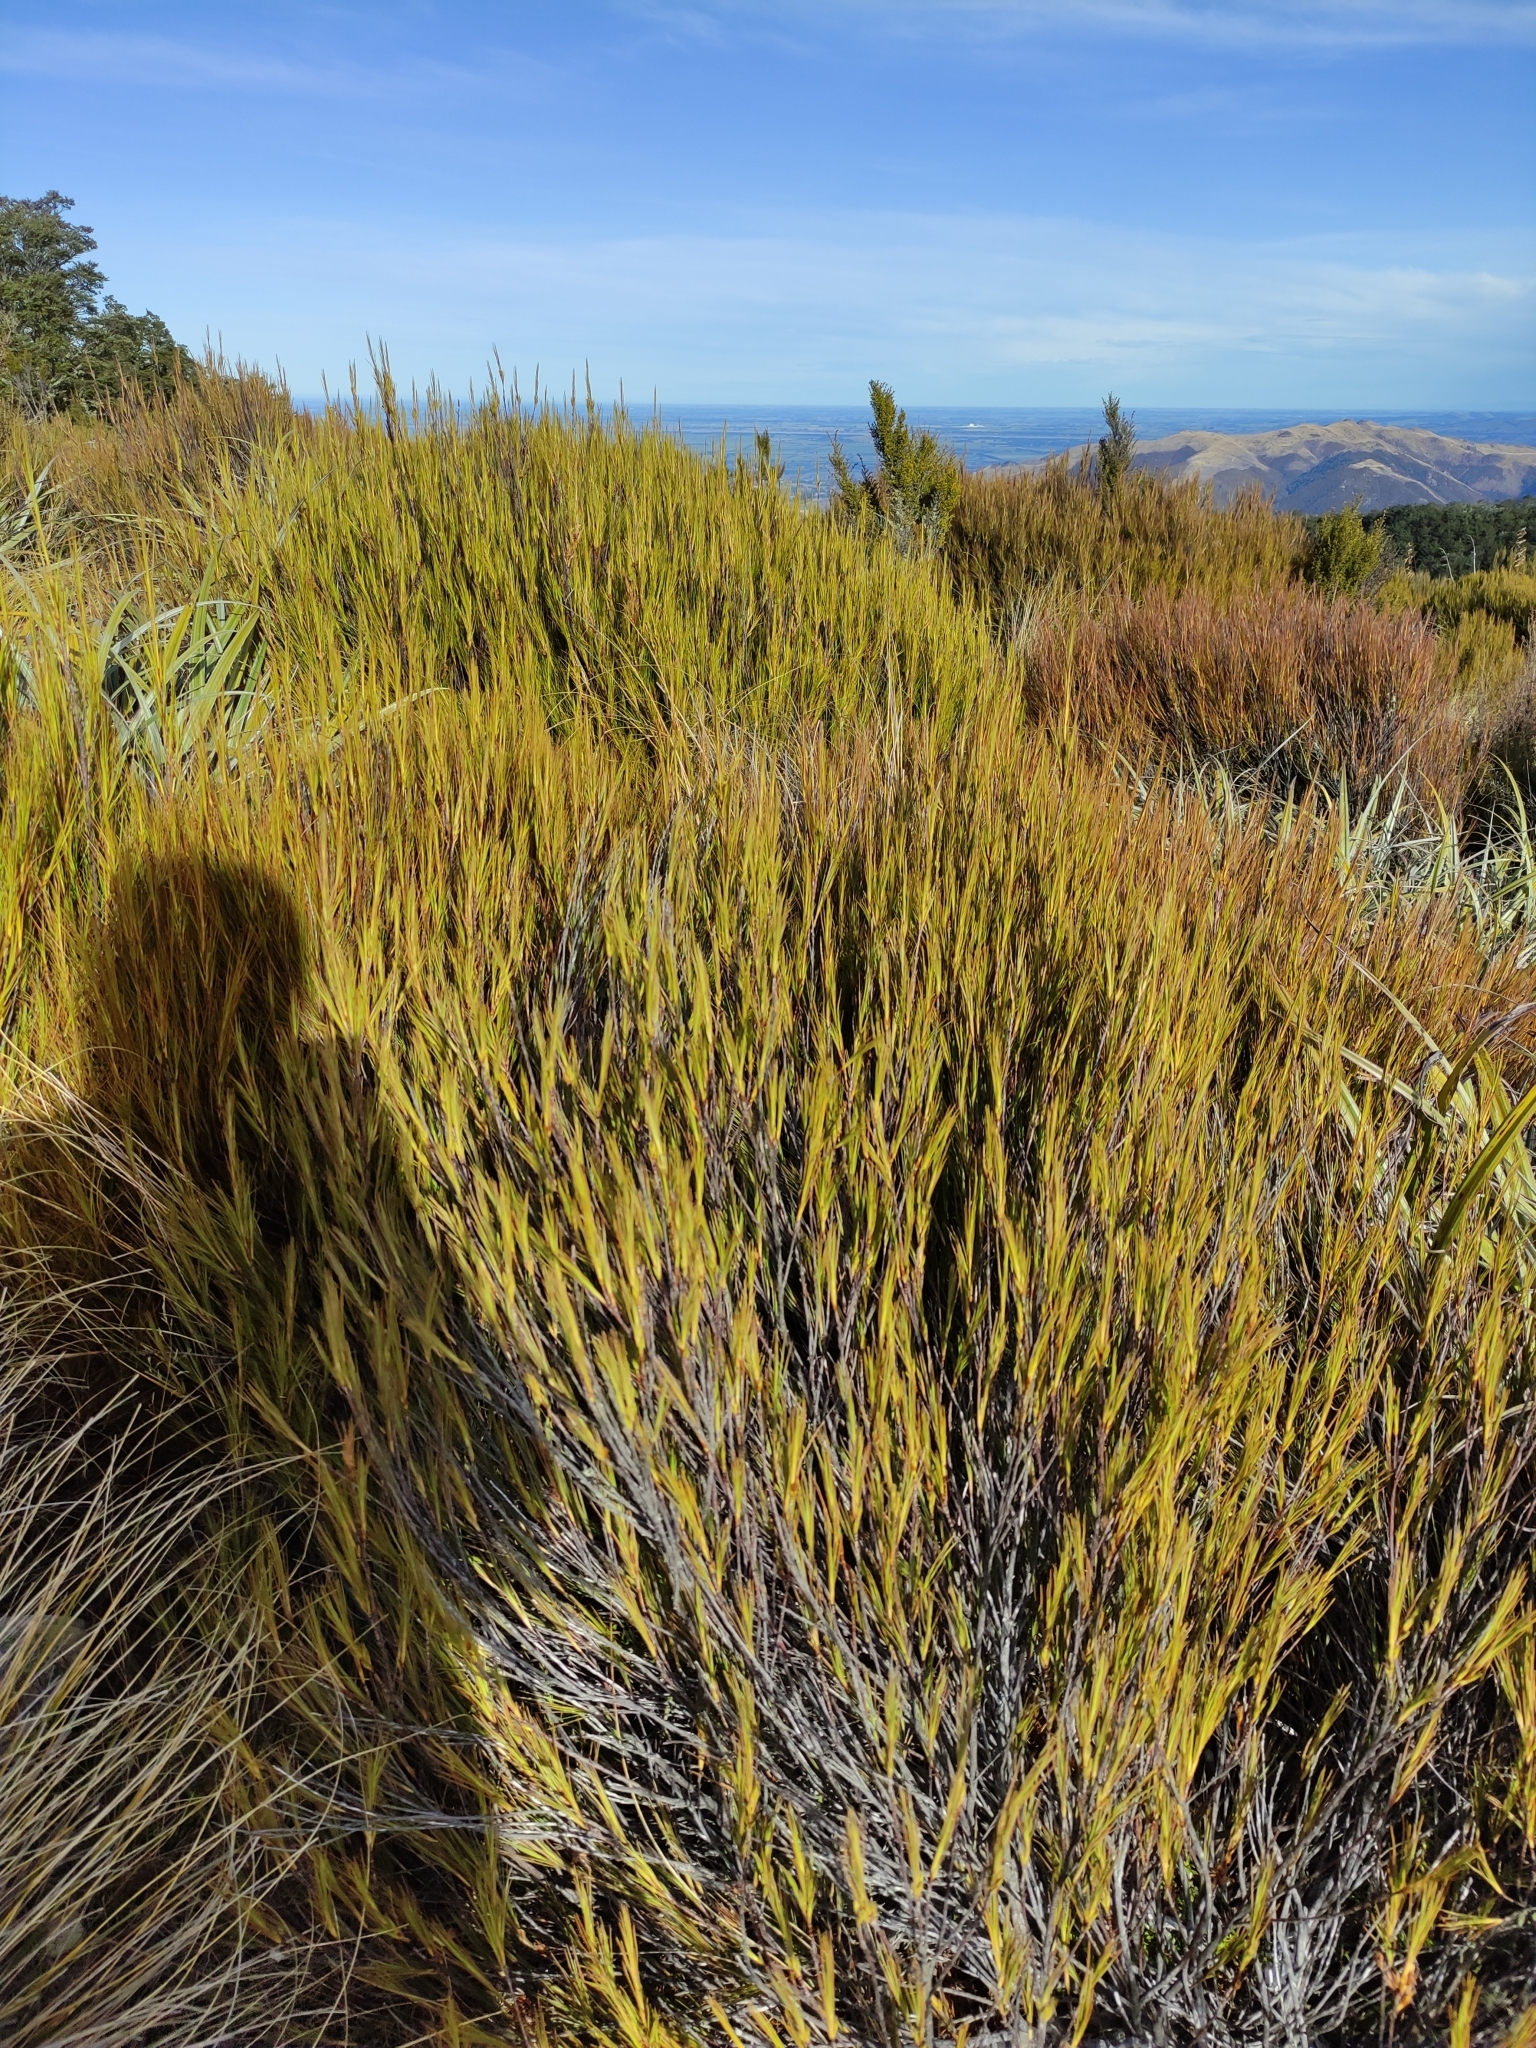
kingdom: Plantae
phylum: Tracheophyta
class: Magnoliopsida
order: Ericales
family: Ericaceae
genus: Dracophyllum
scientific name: Dracophyllum longifolium
